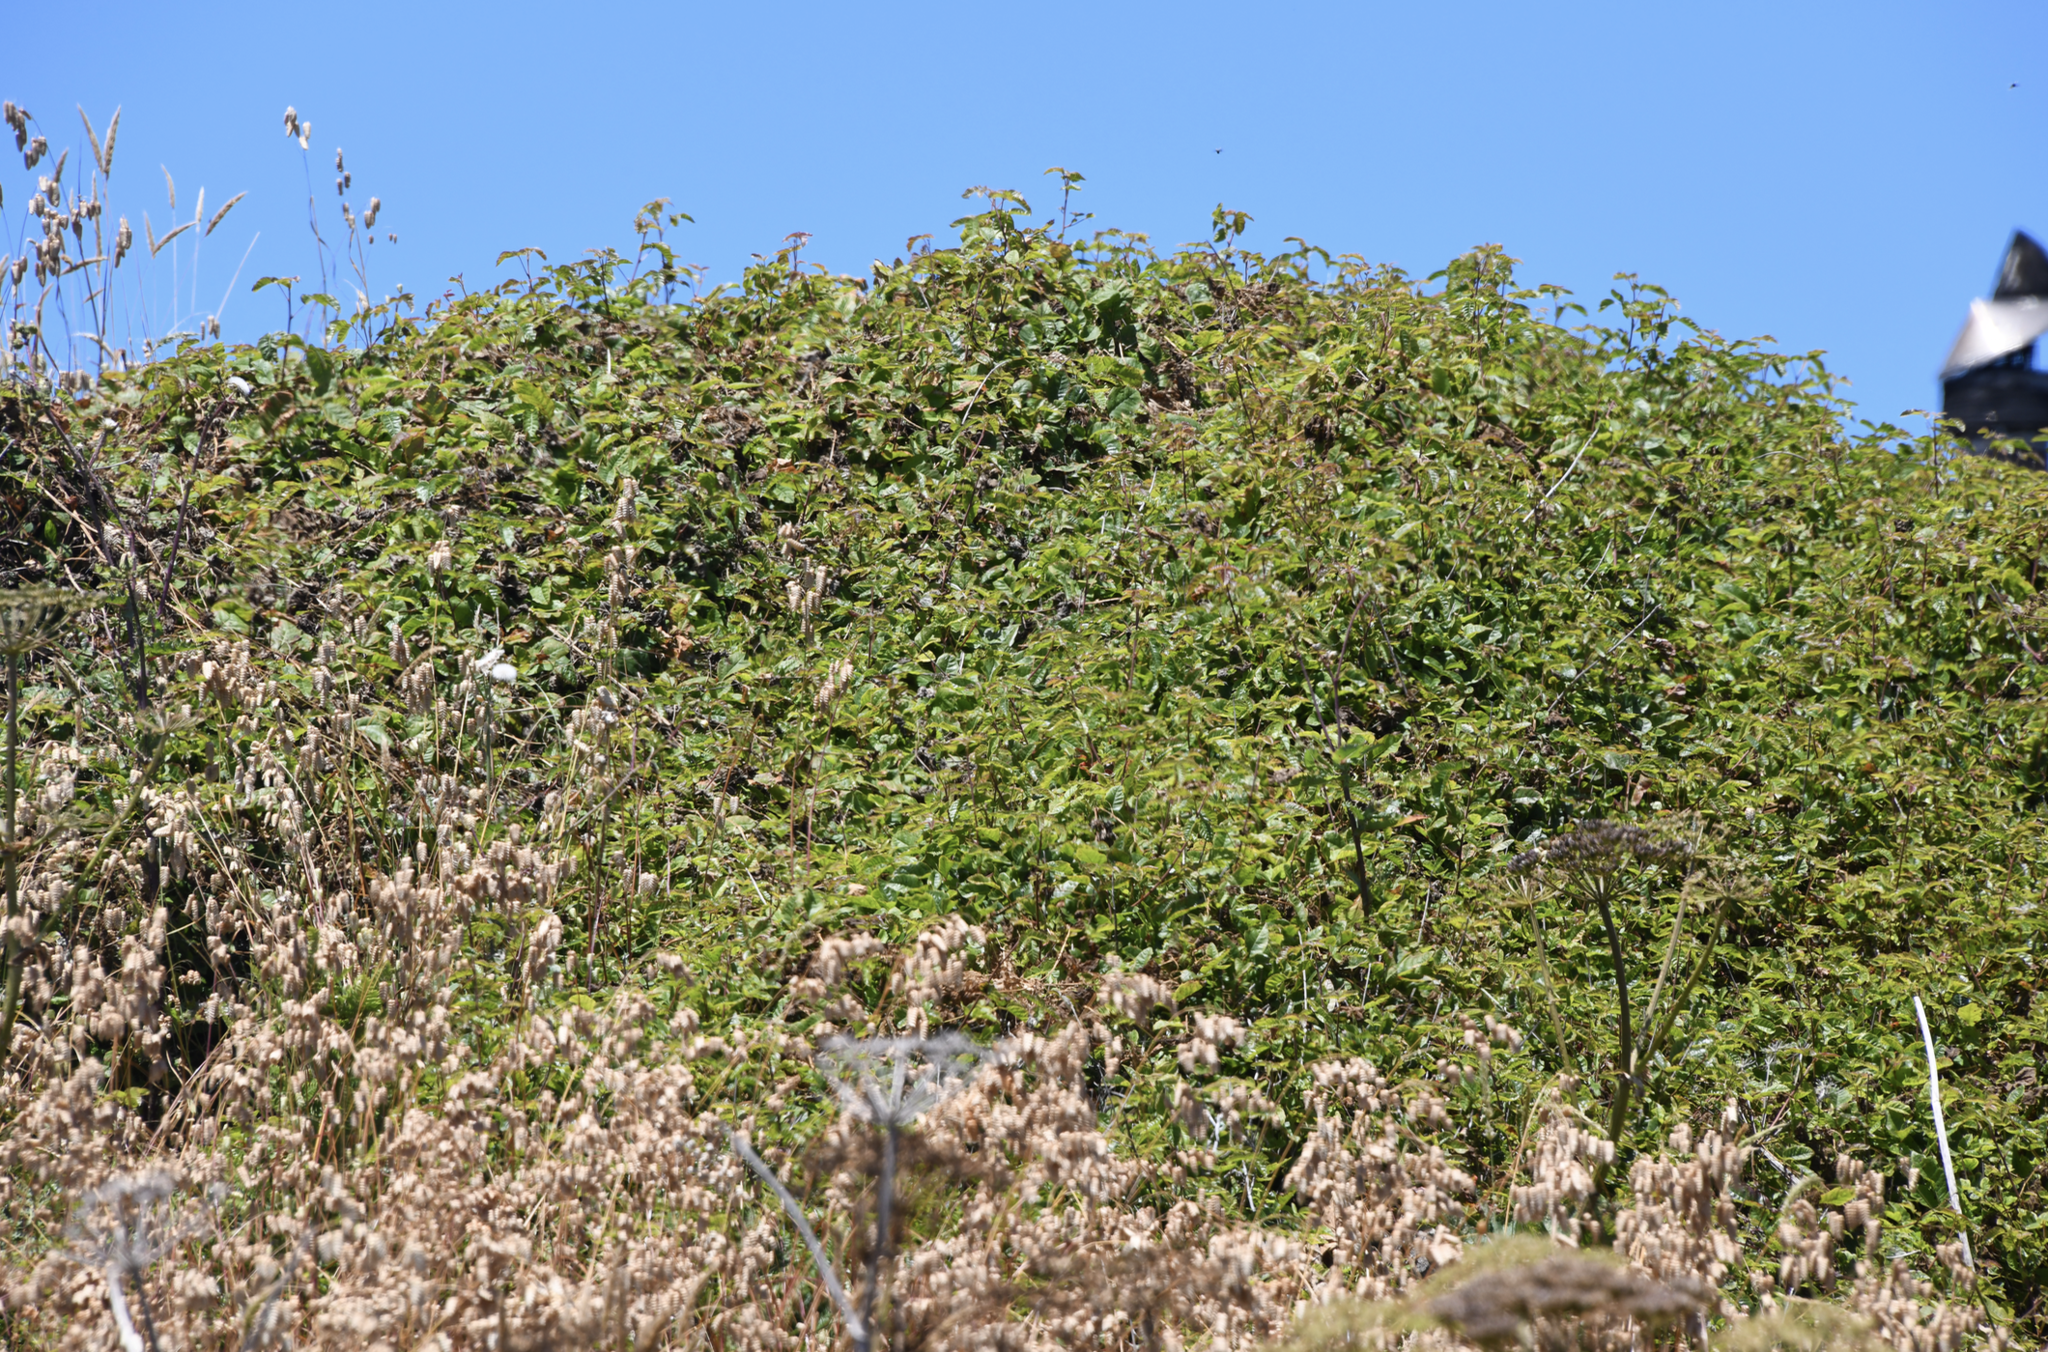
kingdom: Plantae
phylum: Tracheophyta
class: Magnoliopsida
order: Sapindales
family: Anacardiaceae
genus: Toxicodendron
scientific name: Toxicodendron diversilobum
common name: Pacific poison-oak
